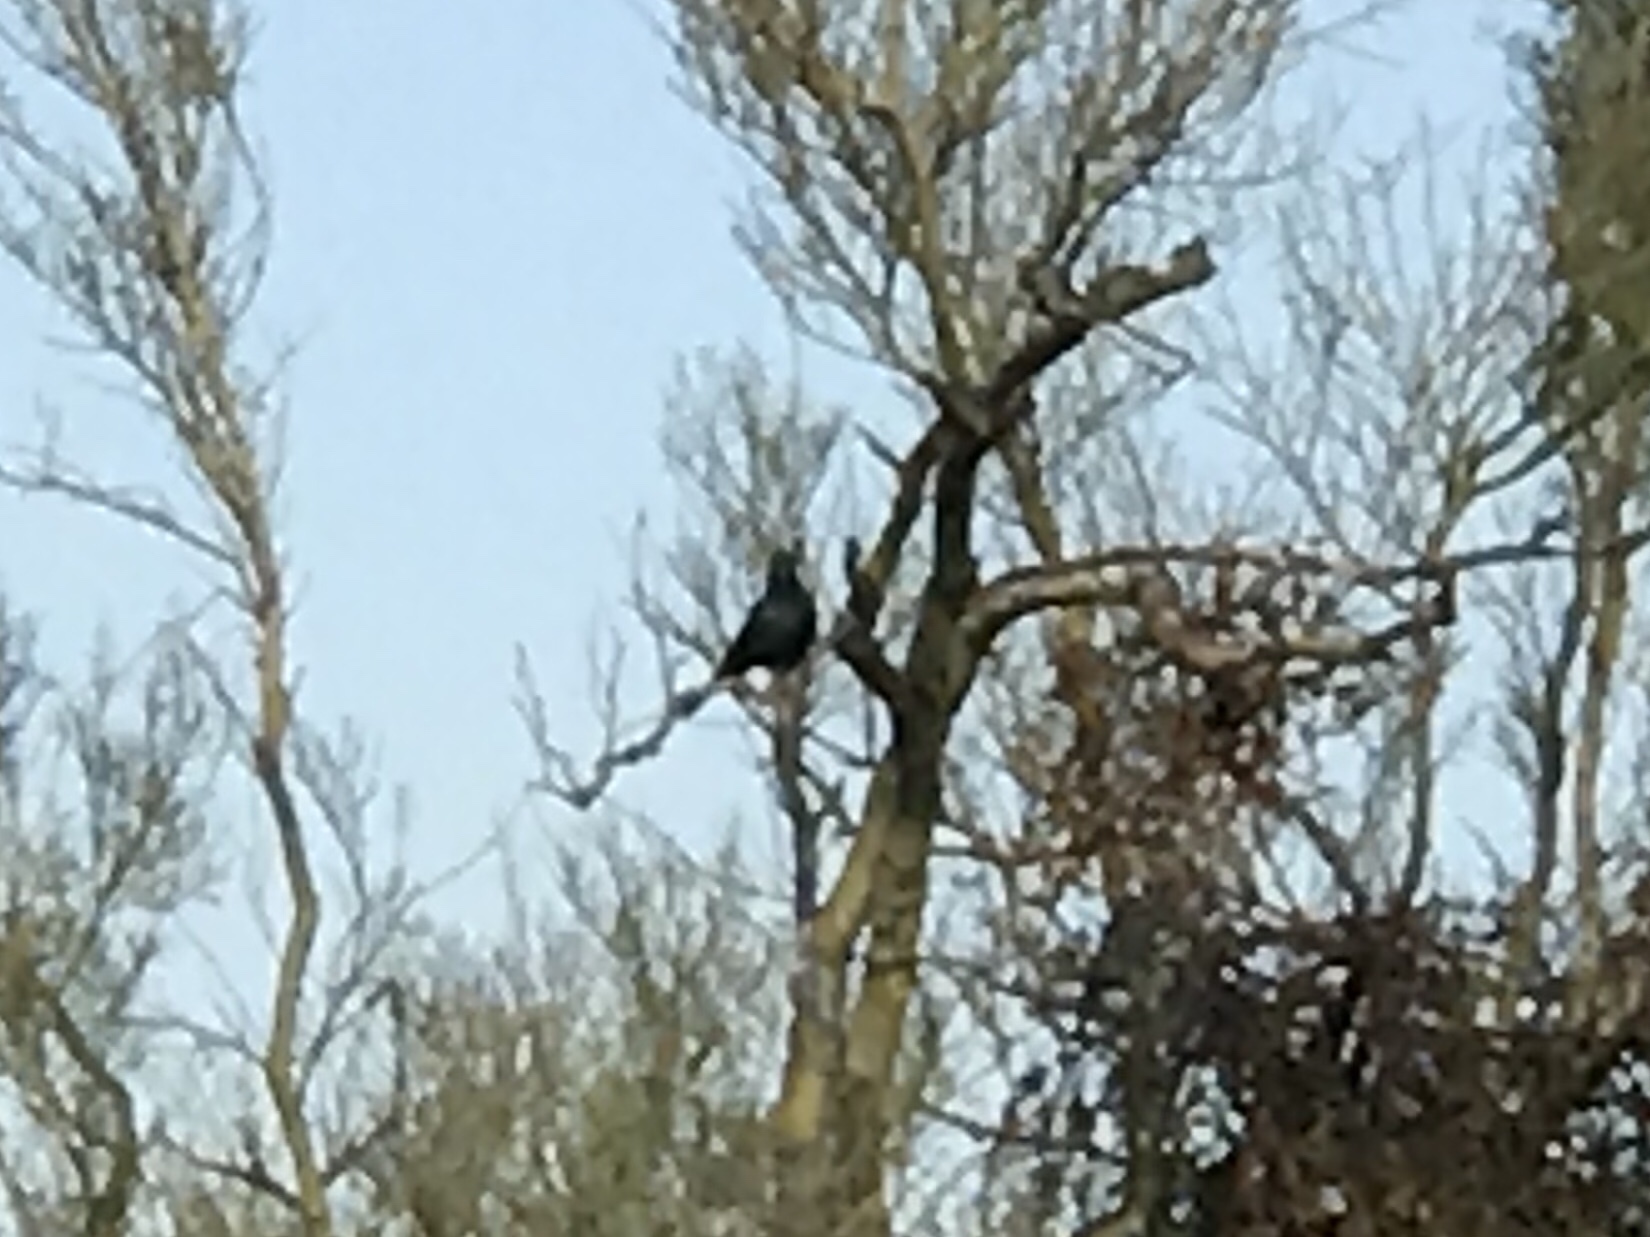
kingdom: Animalia
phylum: Chordata
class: Aves
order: Passeriformes
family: Ptilogonatidae
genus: Phainopepla
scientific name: Phainopepla nitens
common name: Phainopepla
